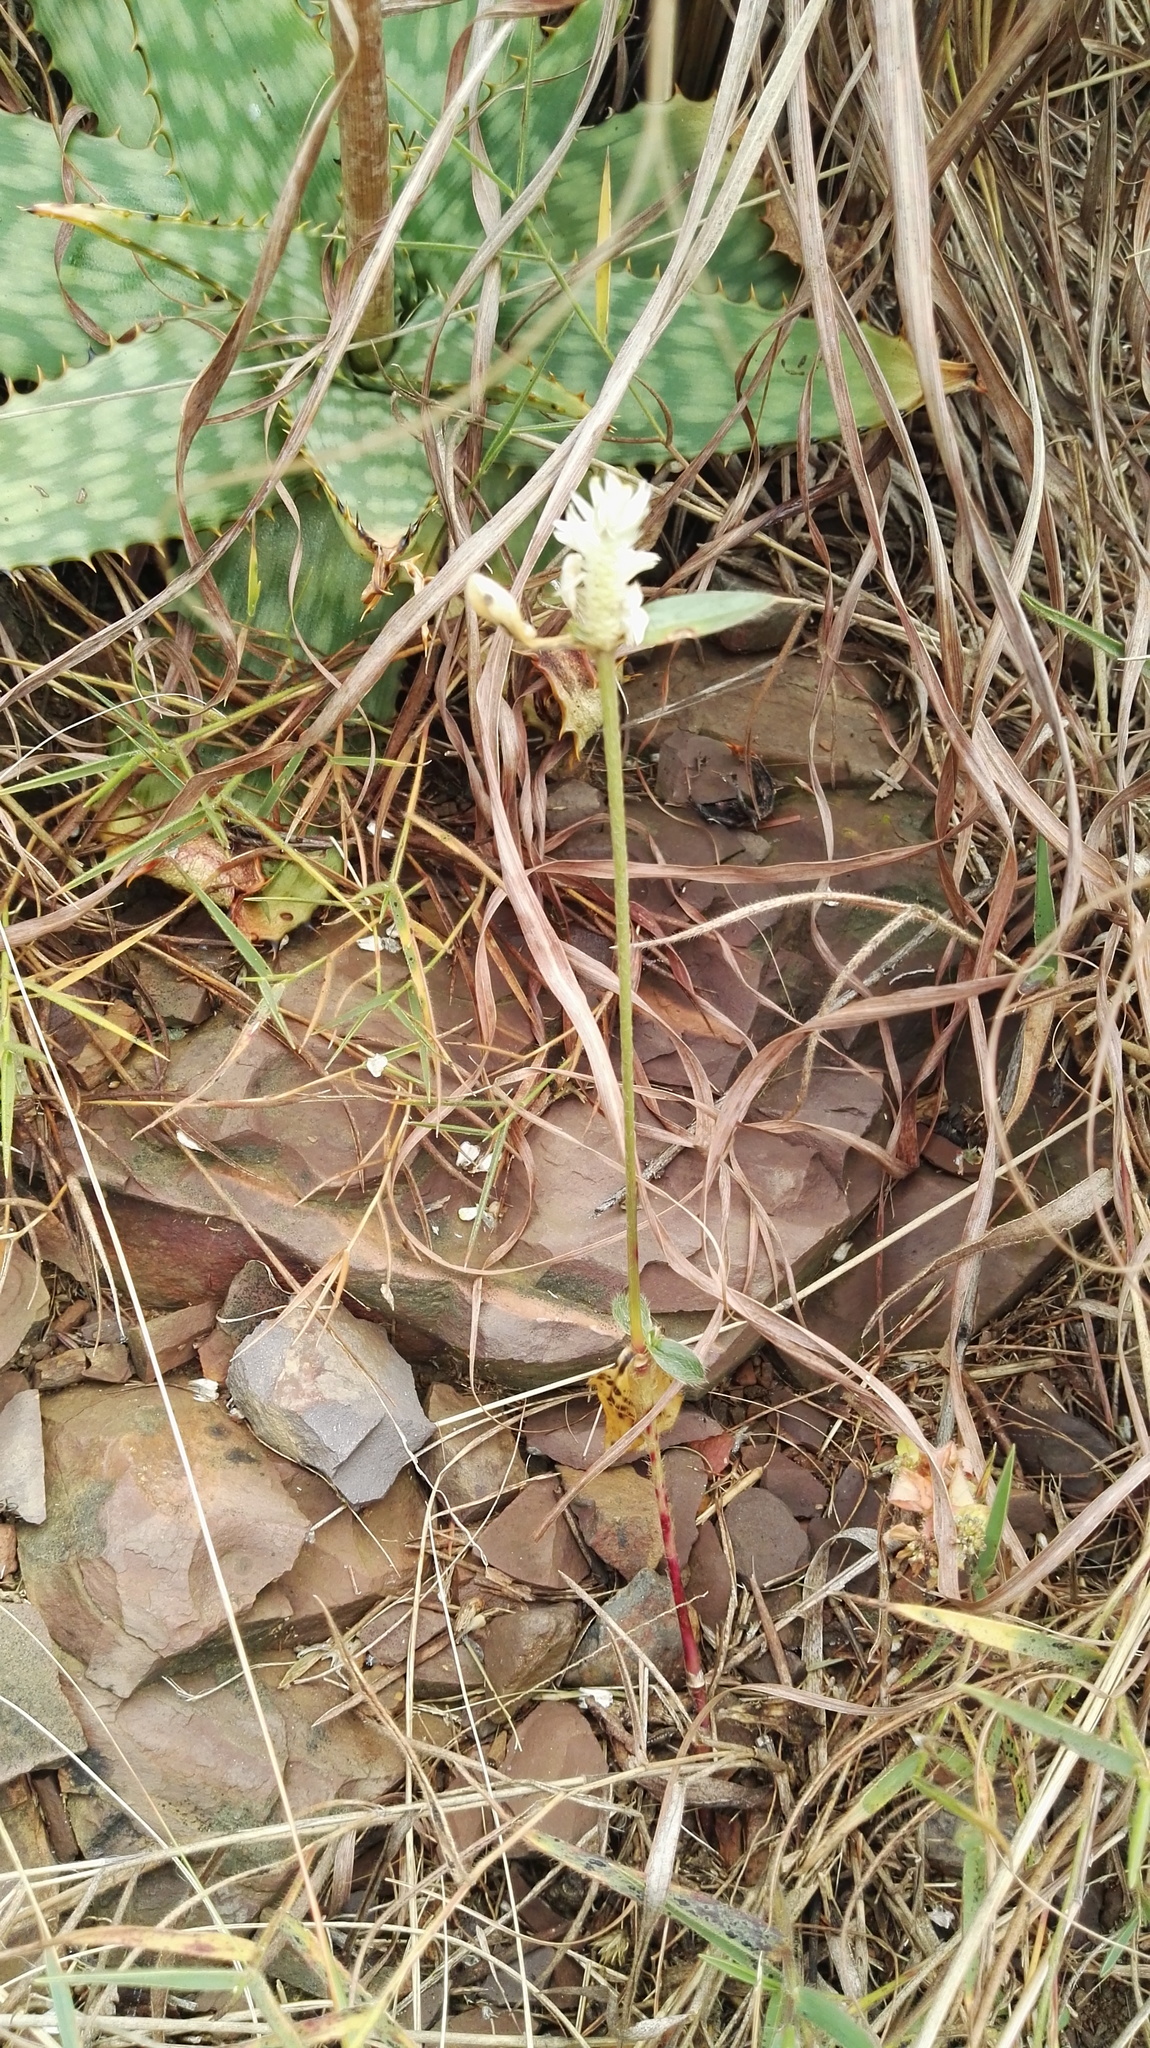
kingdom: Plantae
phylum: Tracheophyta
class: Liliopsida
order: Asparagales
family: Asphodelaceae
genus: Aloe
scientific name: Aloe davyana
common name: Spotted aloe
